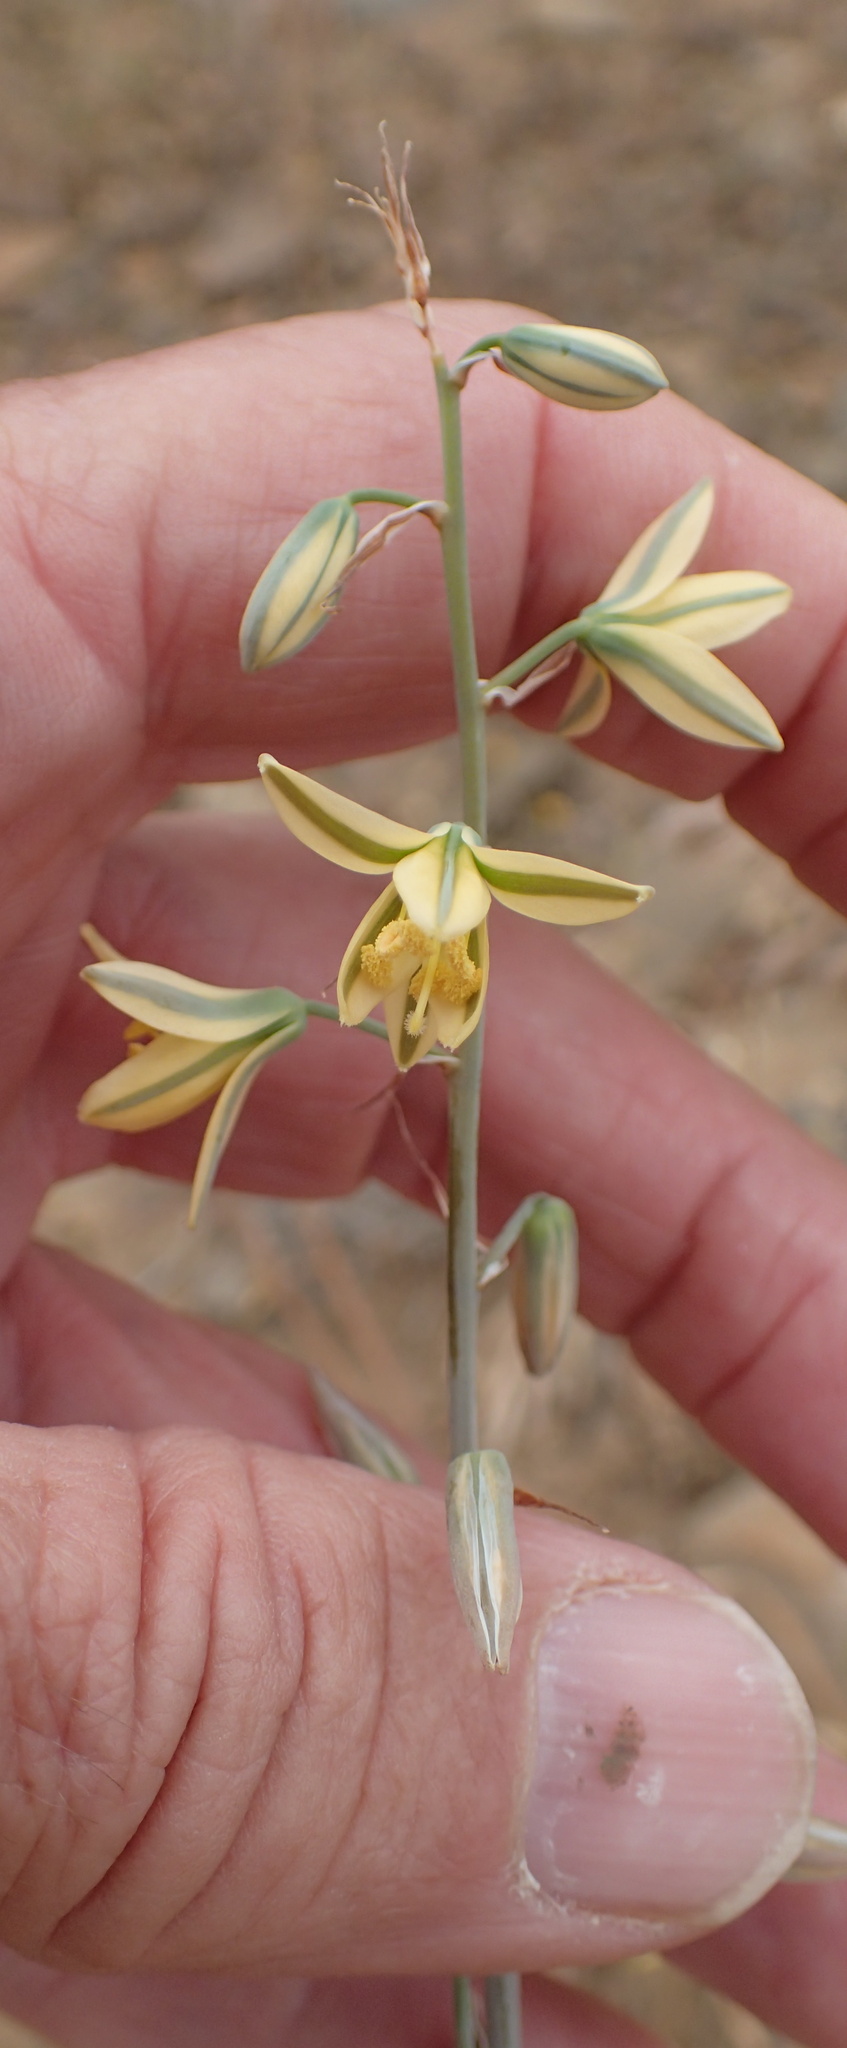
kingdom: Plantae
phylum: Tracheophyta
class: Liliopsida
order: Asparagales
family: Asparagaceae
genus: Albuca
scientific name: Albuca suaveolens
